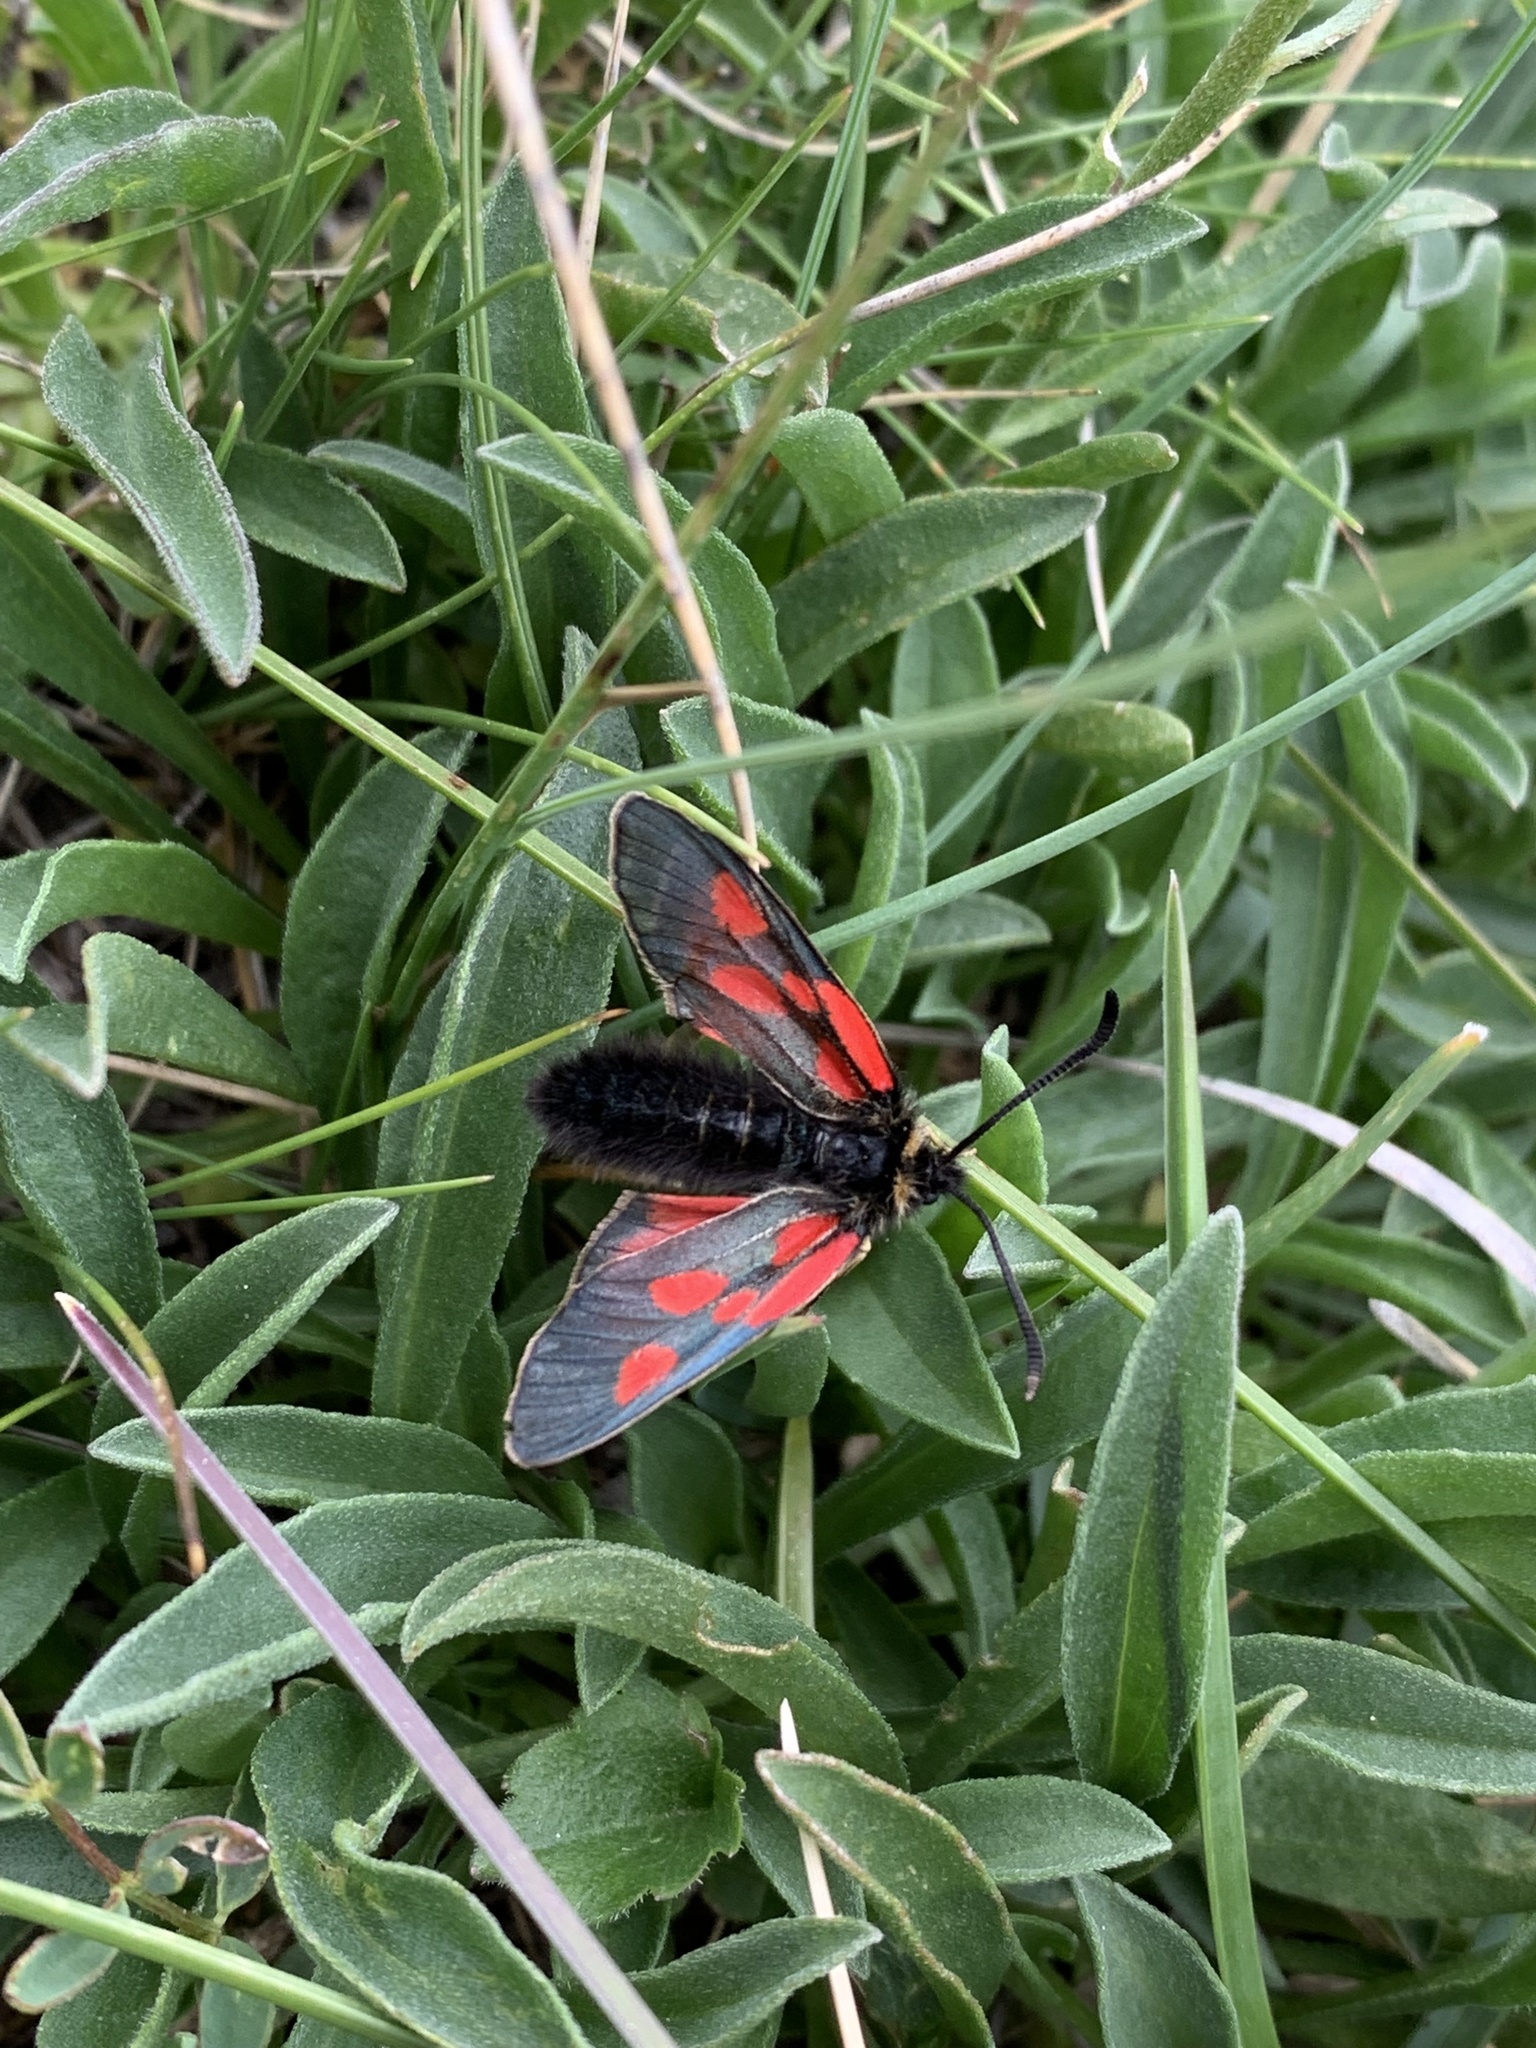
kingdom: Animalia
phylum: Arthropoda
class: Insecta
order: Lepidoptera
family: Zygaenidae
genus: Zygaena
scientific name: Zygaena exulans
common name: Scotch burnet
